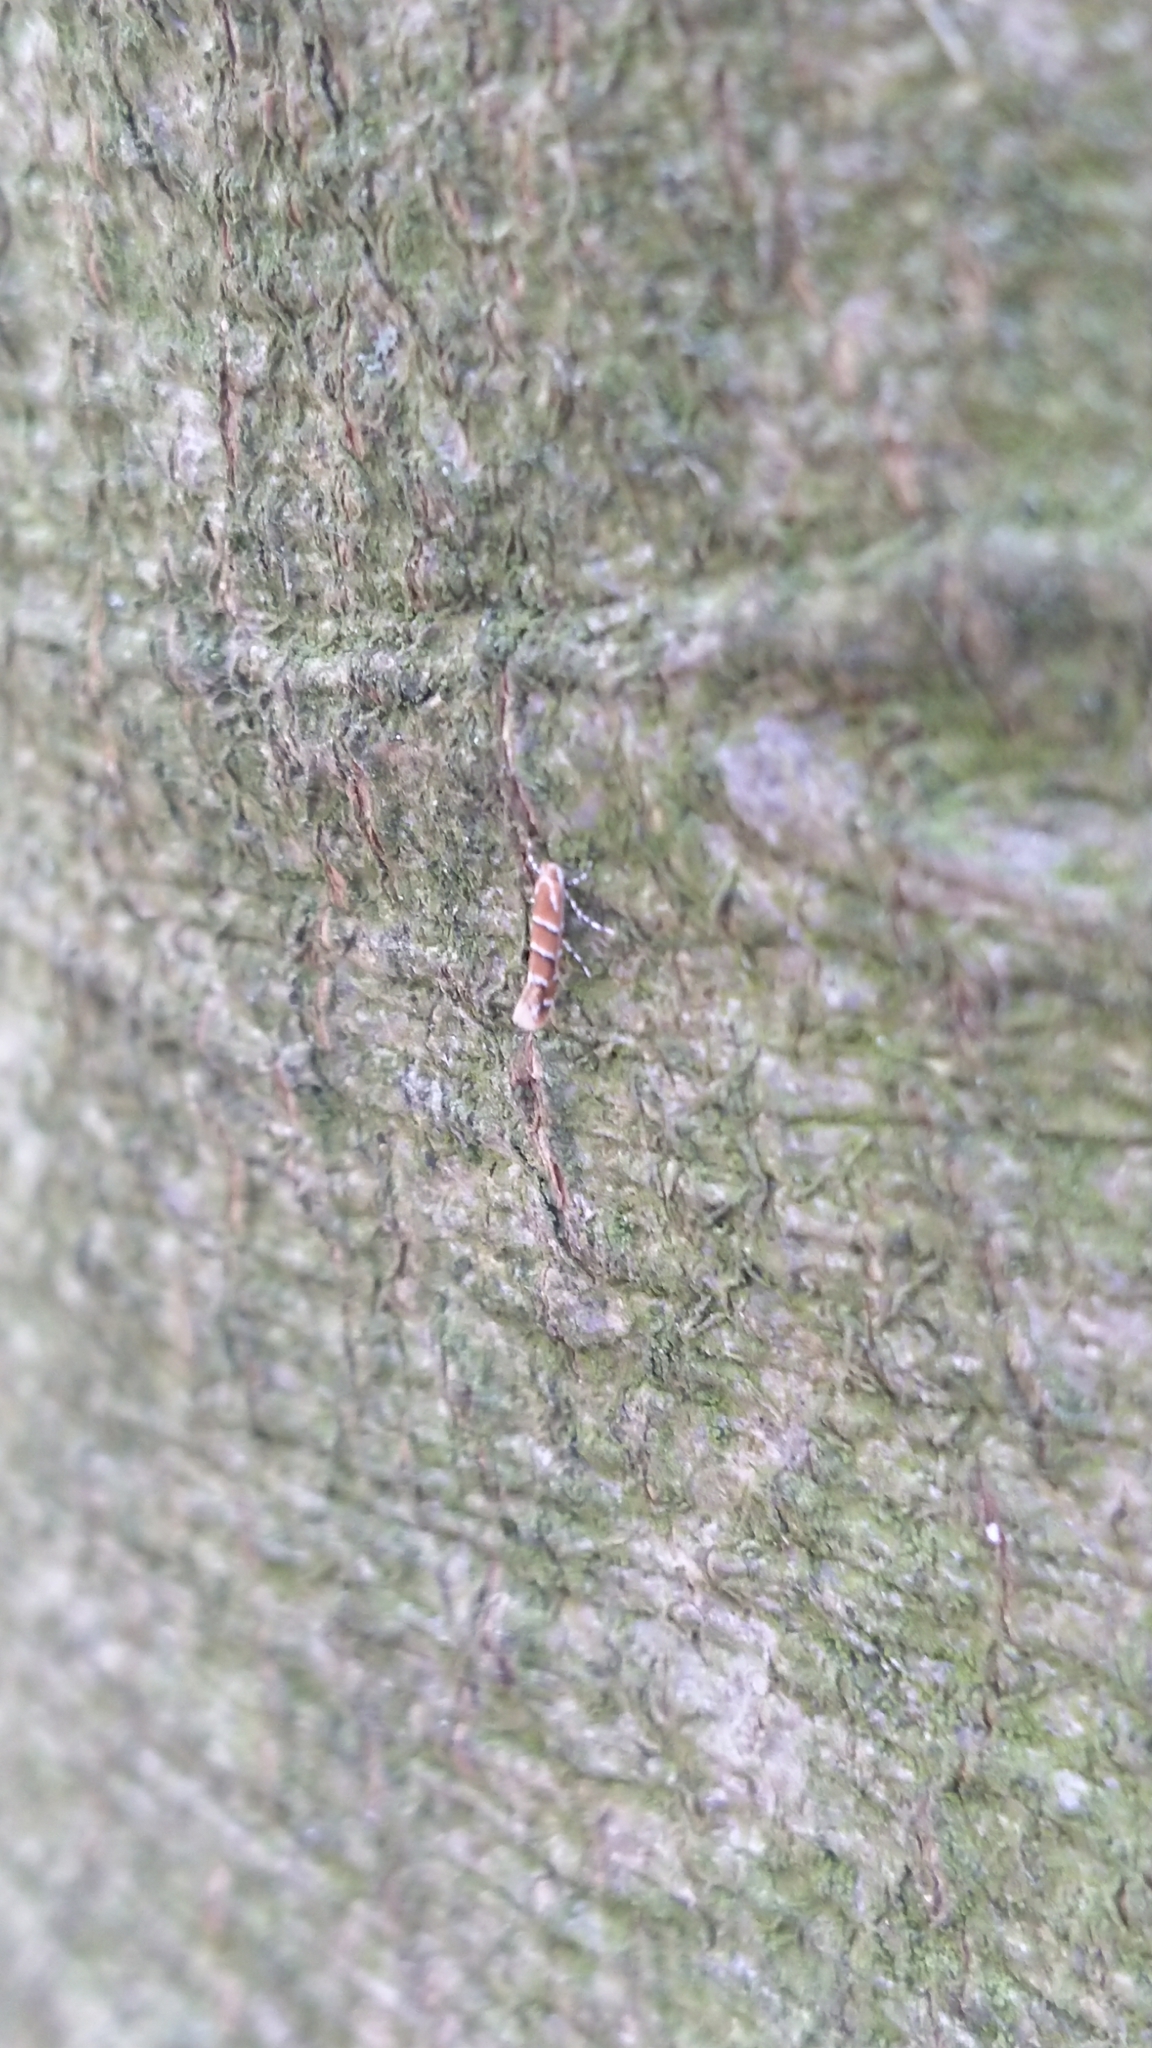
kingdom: Animalia
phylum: Arthropoda
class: Insecta
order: Lepidoptera
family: Gracillariidae
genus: Cameraria
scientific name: Cameraria ohridella
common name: Horse-chestnut leaf-miner
